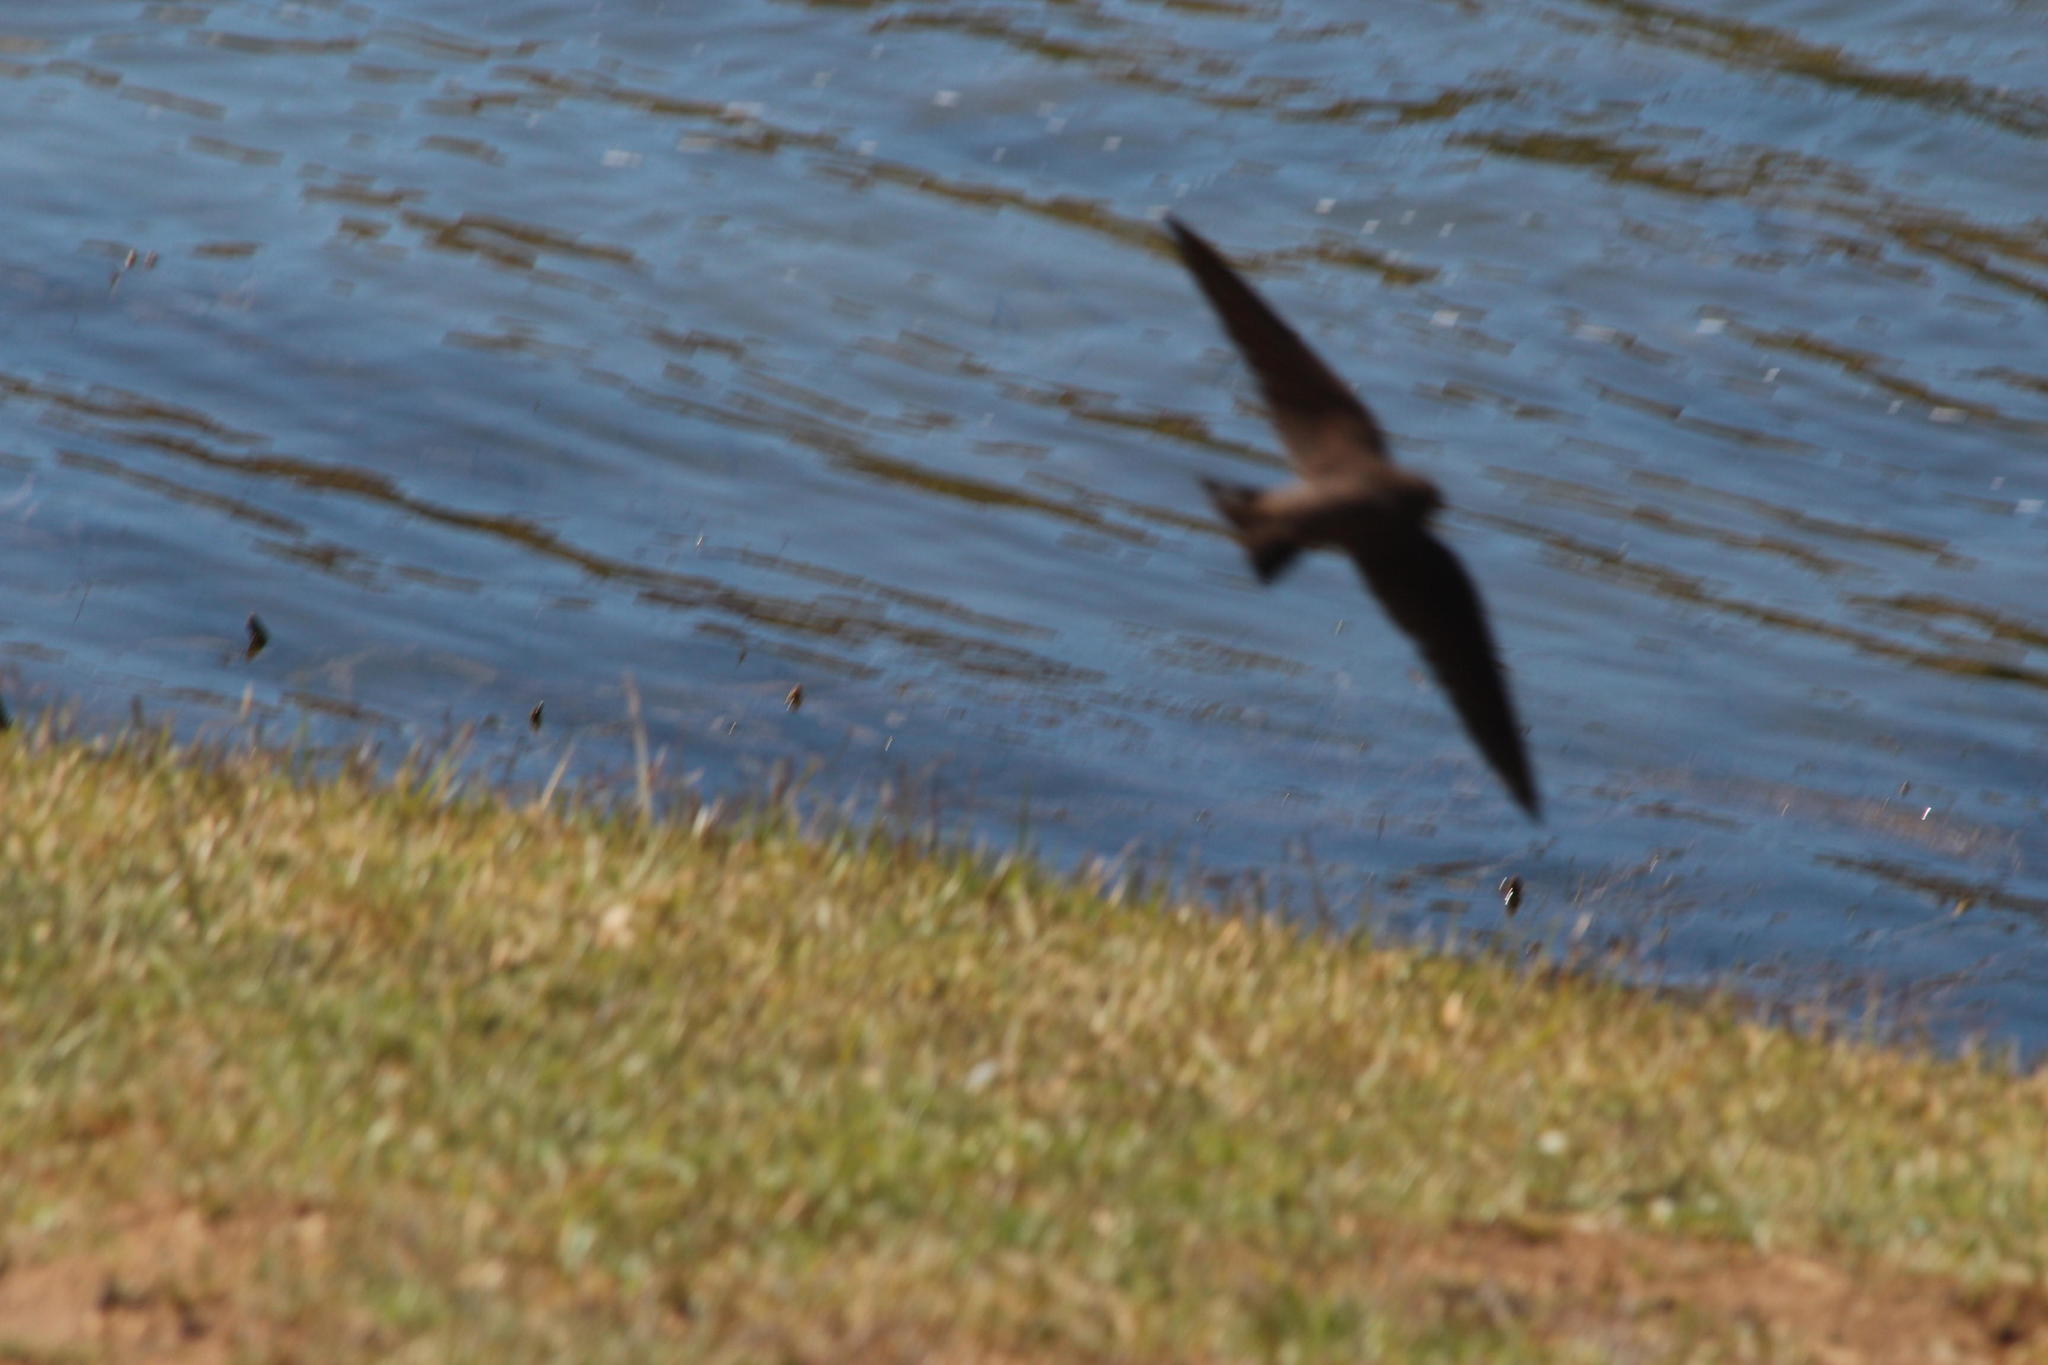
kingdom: Animalia
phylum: Chordata
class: Aves
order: Passeriformes
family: Hirundinidae
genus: Ptyonoprogne
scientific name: Ptyonoprogne fuligula
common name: Rock martin
